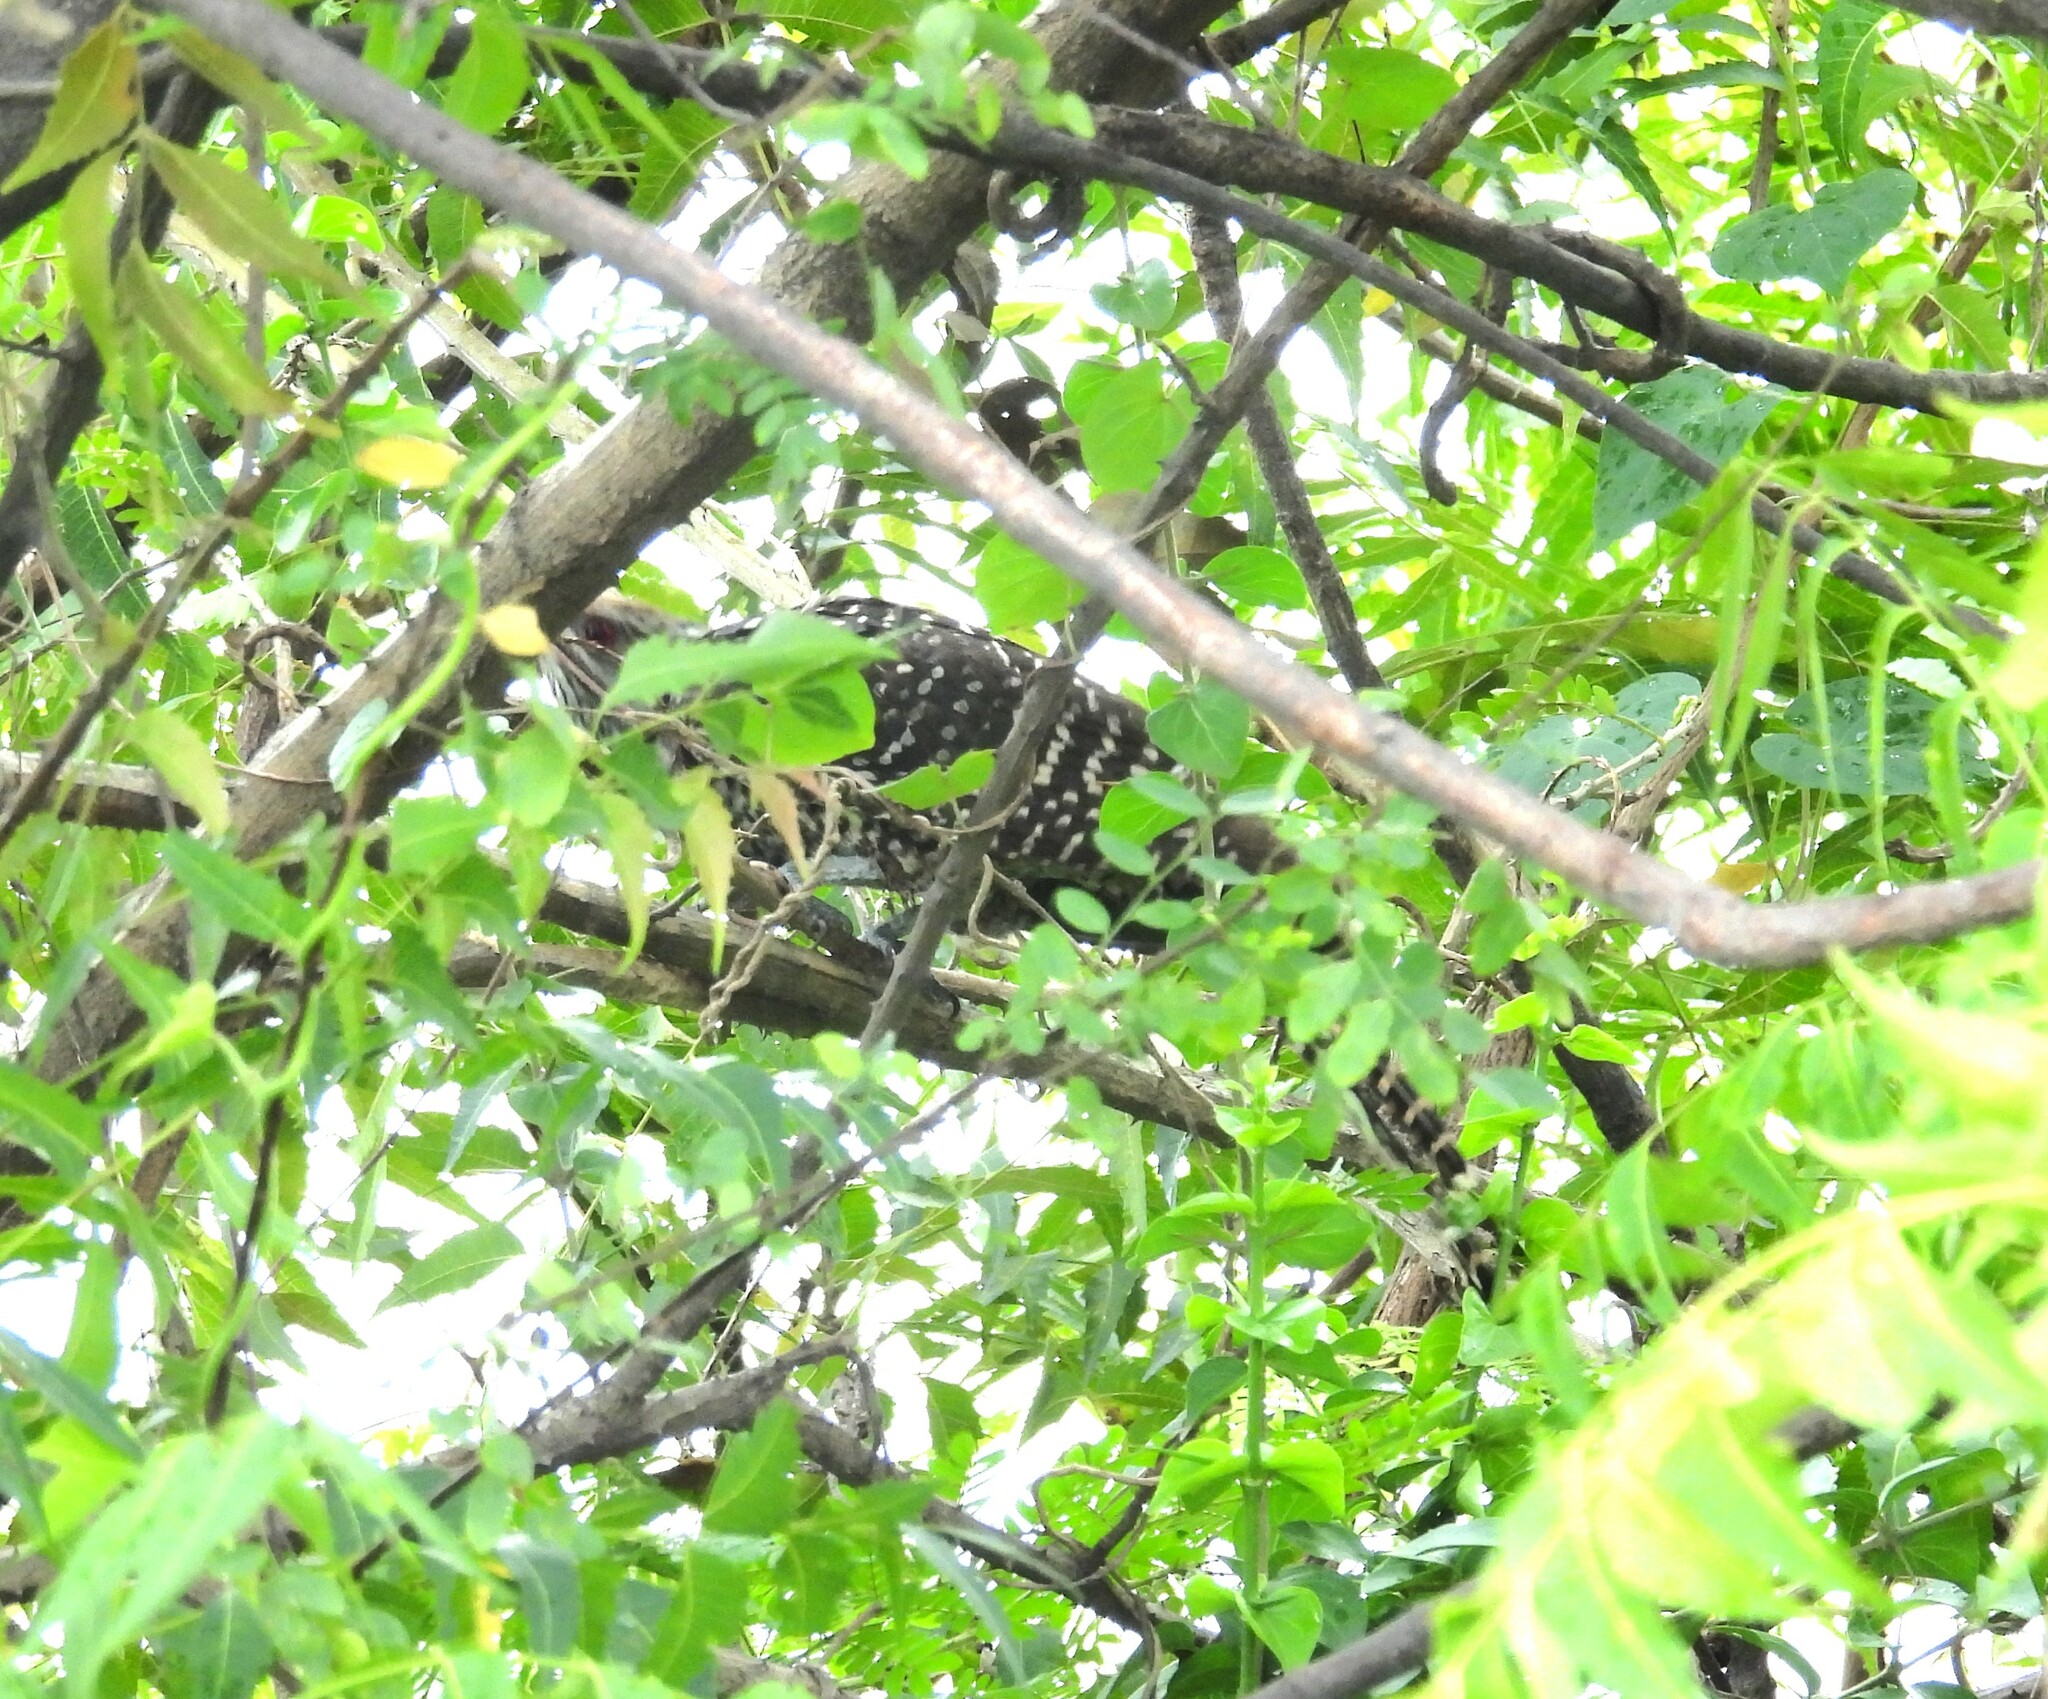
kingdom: Animalia
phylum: Chordata
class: Aves
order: Cuculiformes
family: Cuculidae
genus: Eudynamys
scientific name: Eudynamys scolopaceus
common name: Asian koel
